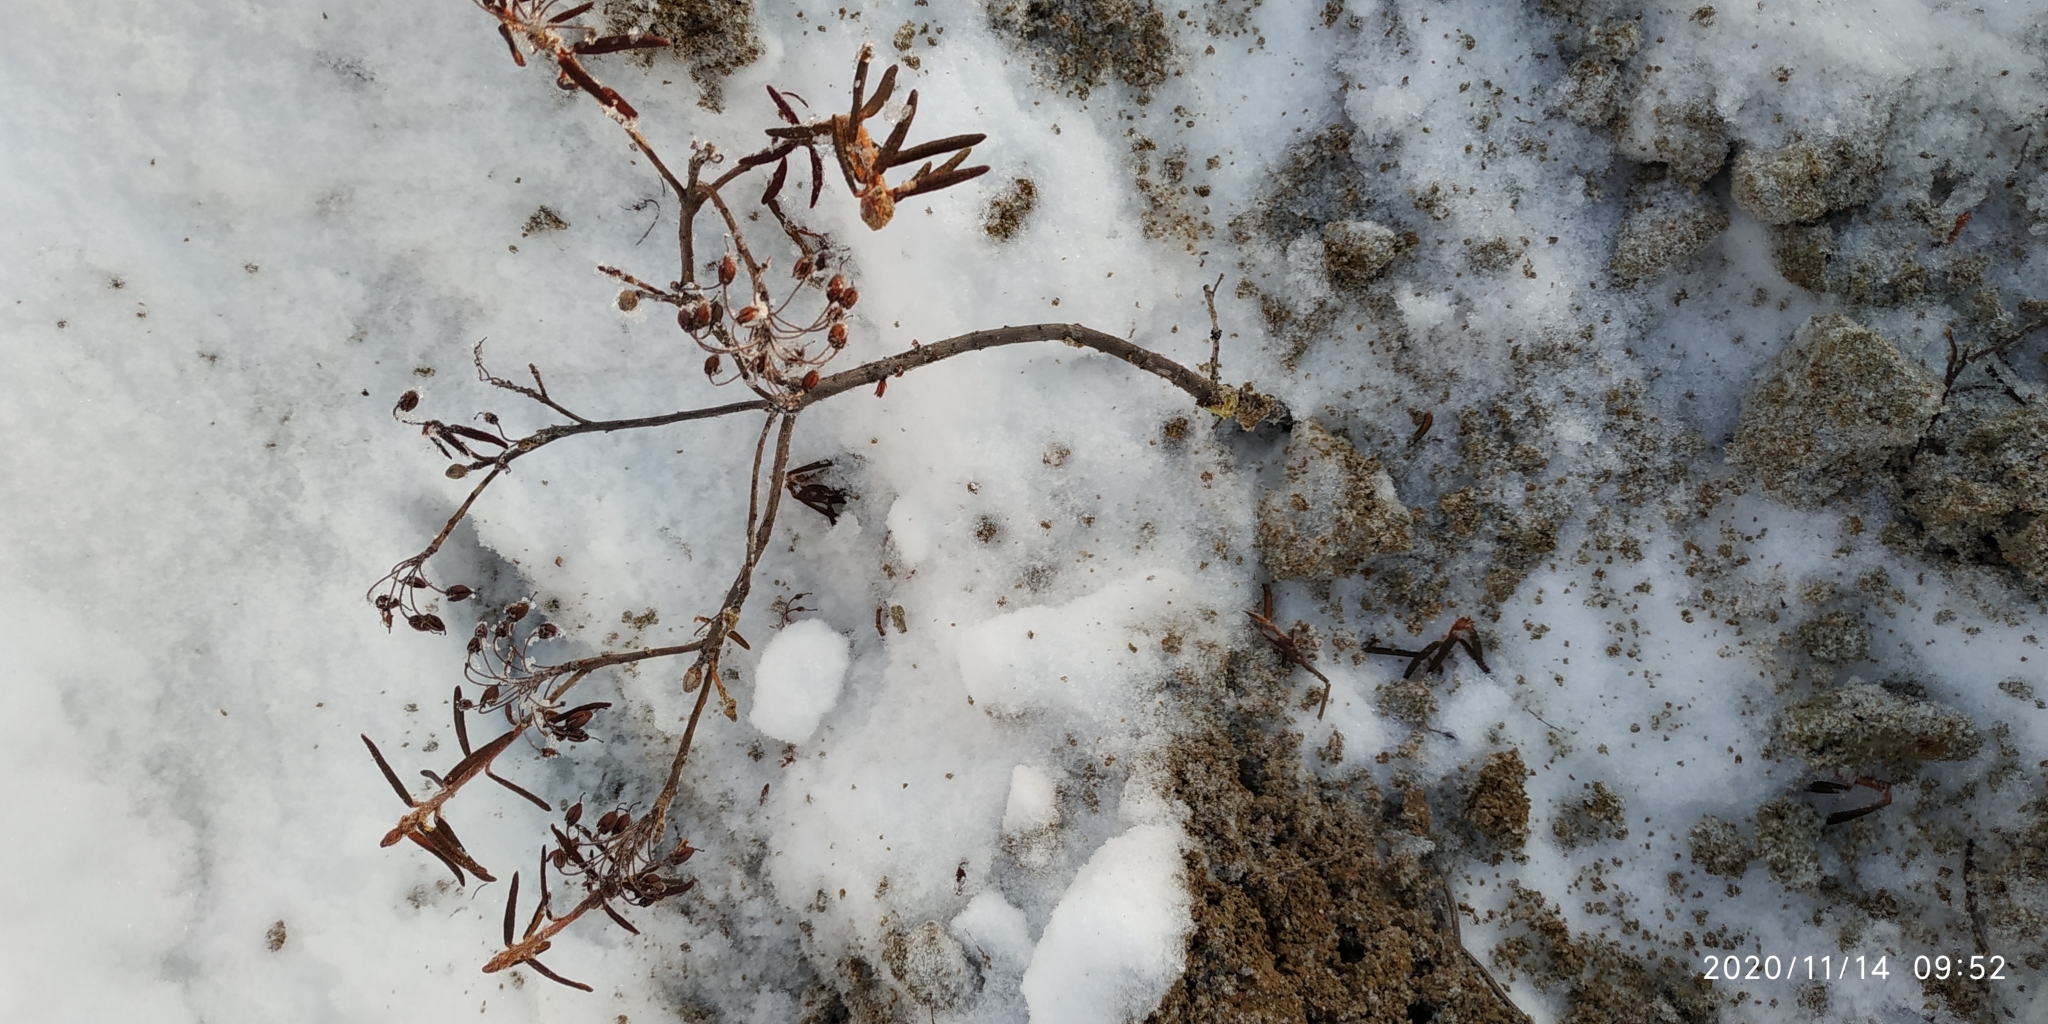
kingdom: Plantae
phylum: Tracheophyta
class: Magnoliopsida
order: Ericales
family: Ericaceae
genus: Rhododendron
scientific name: Rhododendron tomentosum
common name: Marsh labrador tea
